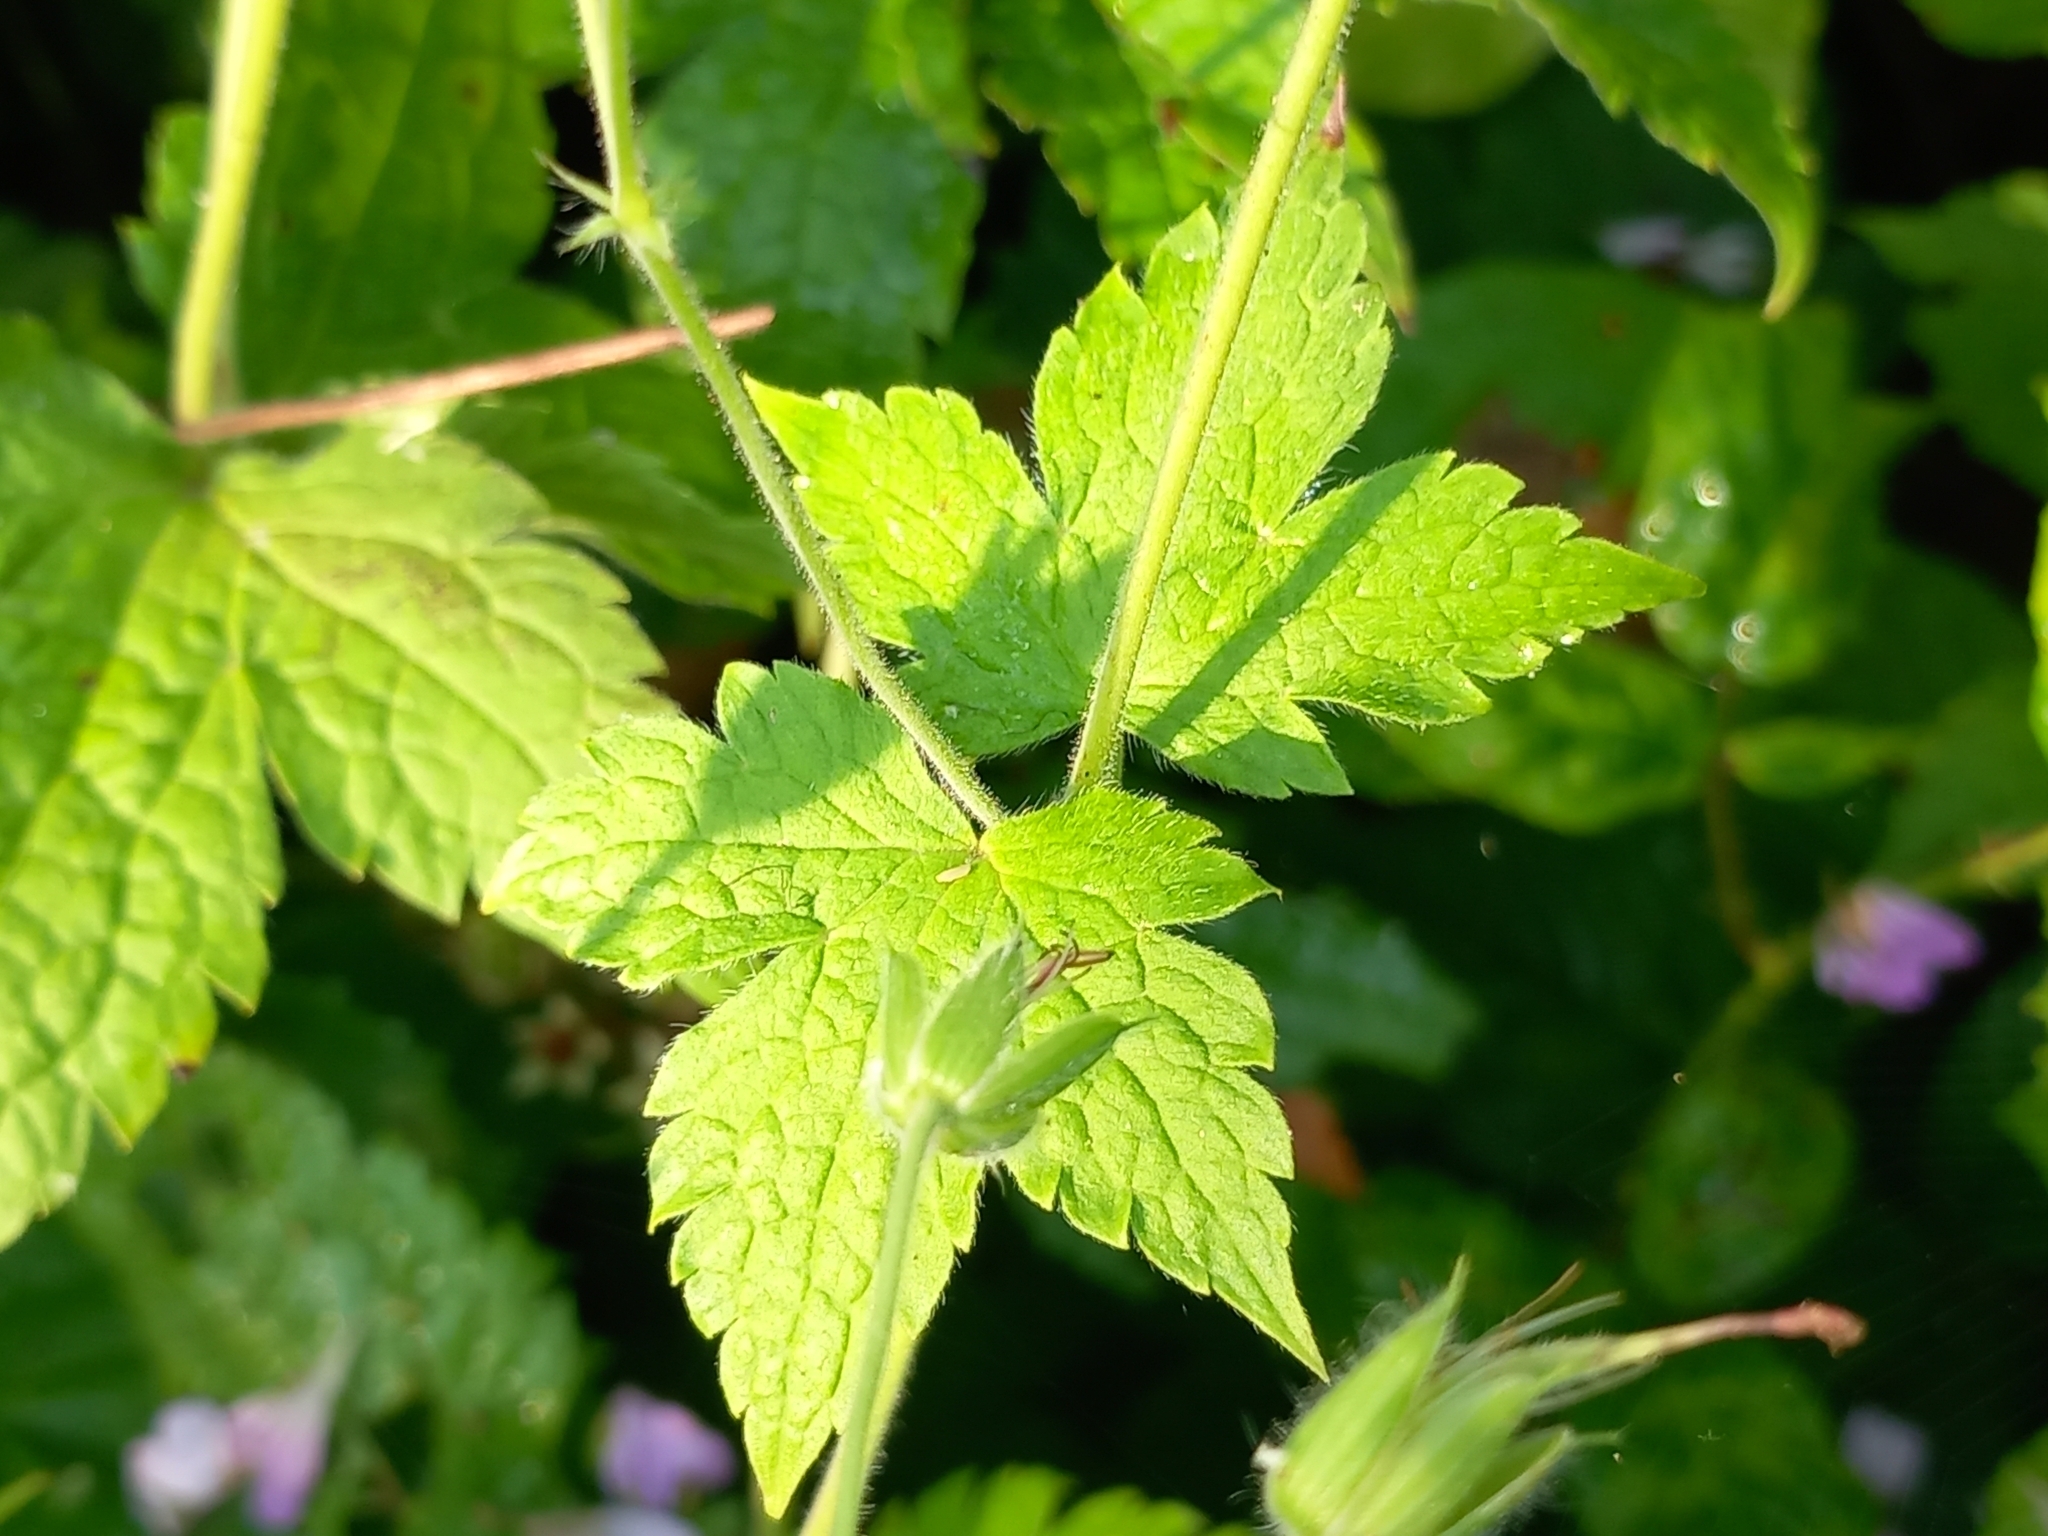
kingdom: Plantae
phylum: Tracheophyta
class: Magnoliopsida
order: Geraniales
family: Geraniaceae
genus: Geranium
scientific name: Geranium gracile
